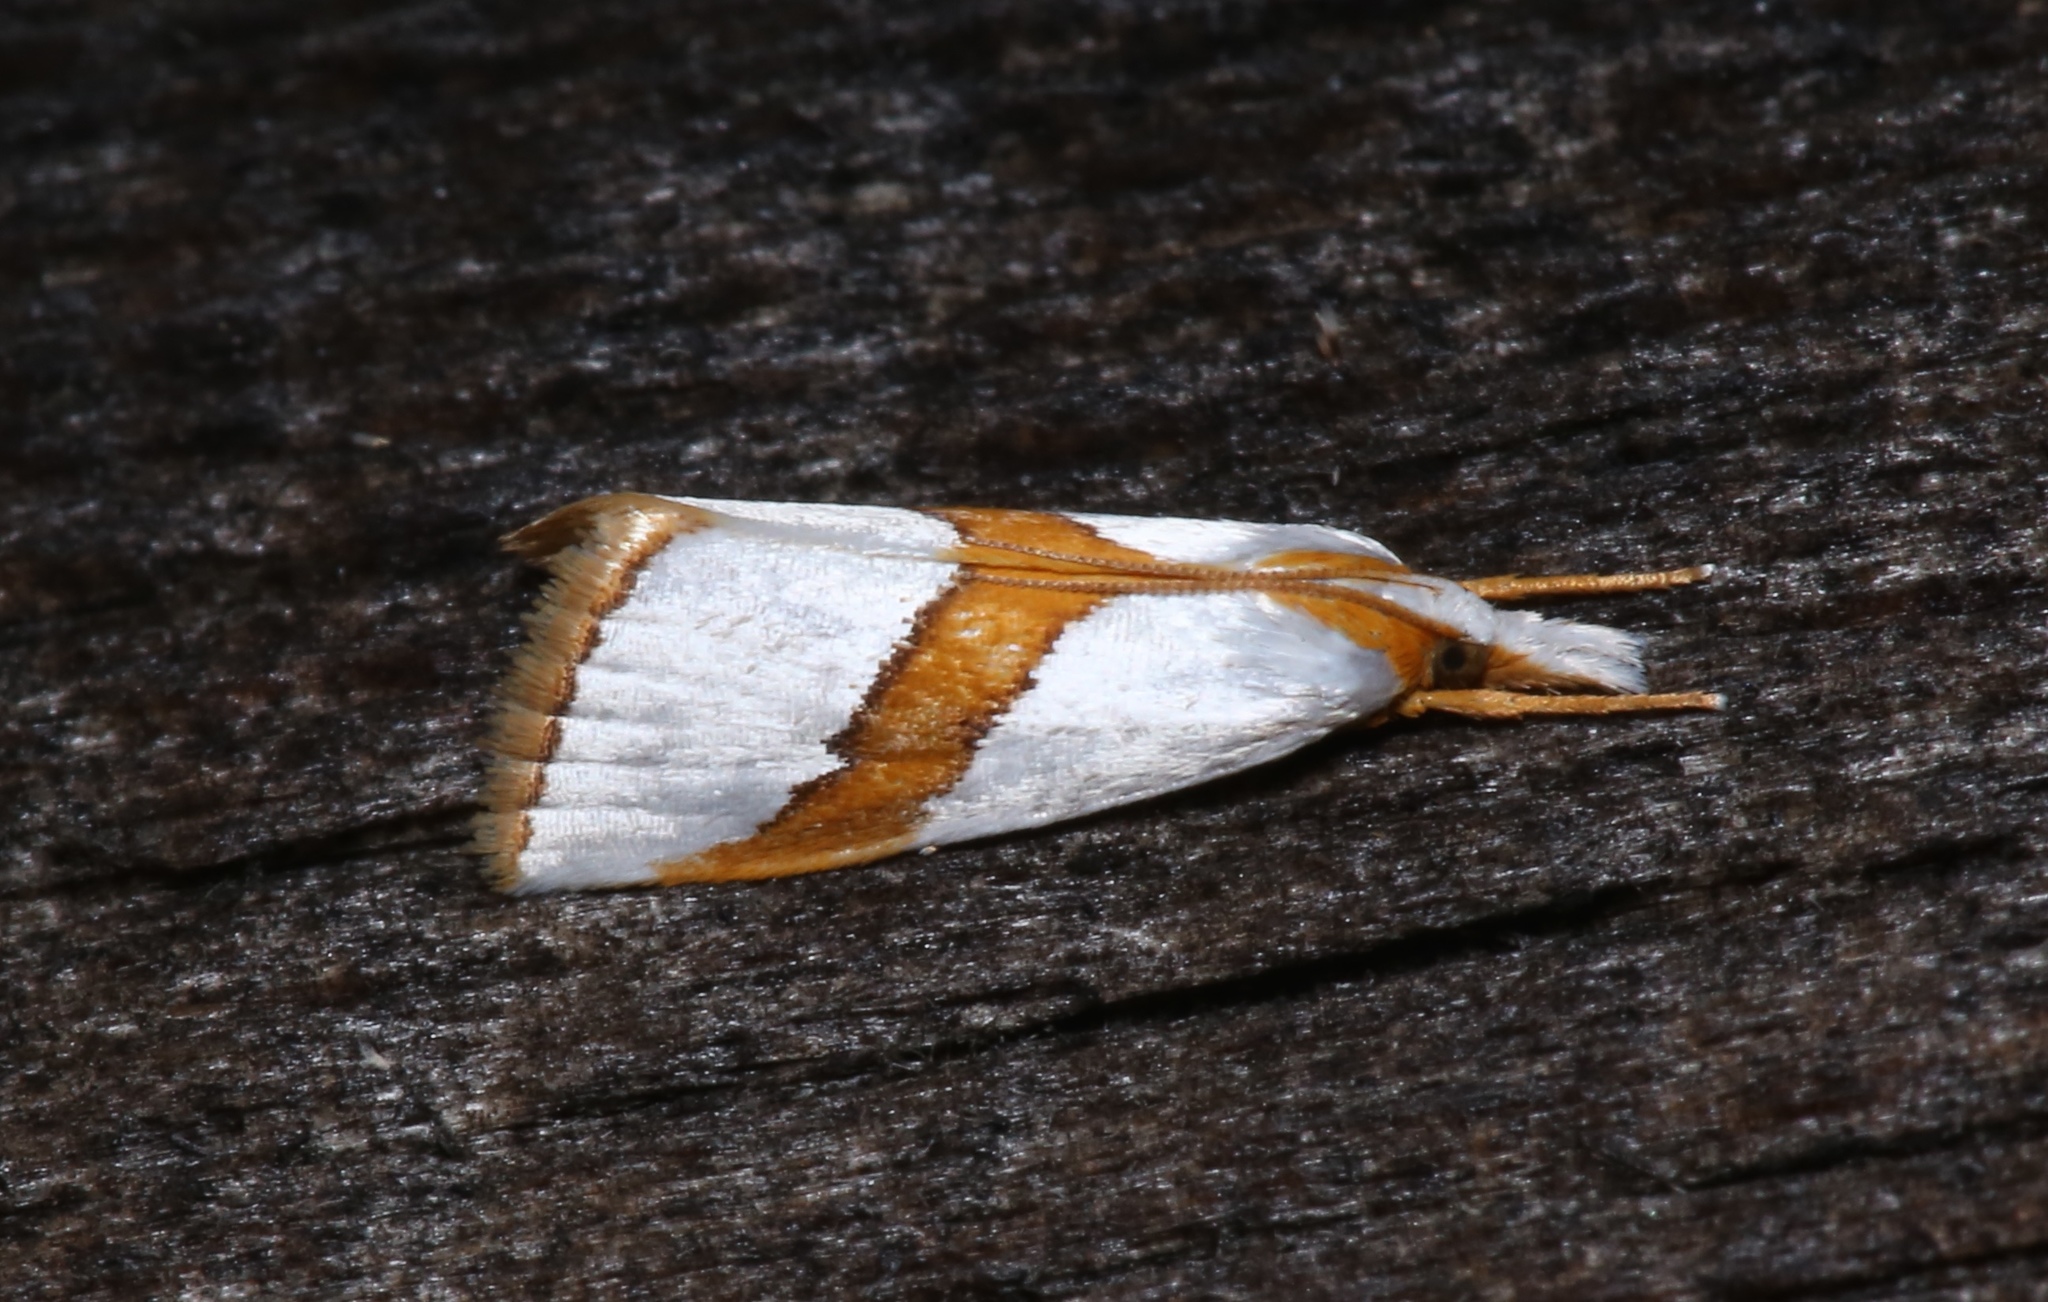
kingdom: Animalia
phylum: Arthropoda
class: Insecta
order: Lepidoptera
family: Crambidae
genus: Vaxi
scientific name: Vaxi critica
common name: Straight-lined vaxi moth
